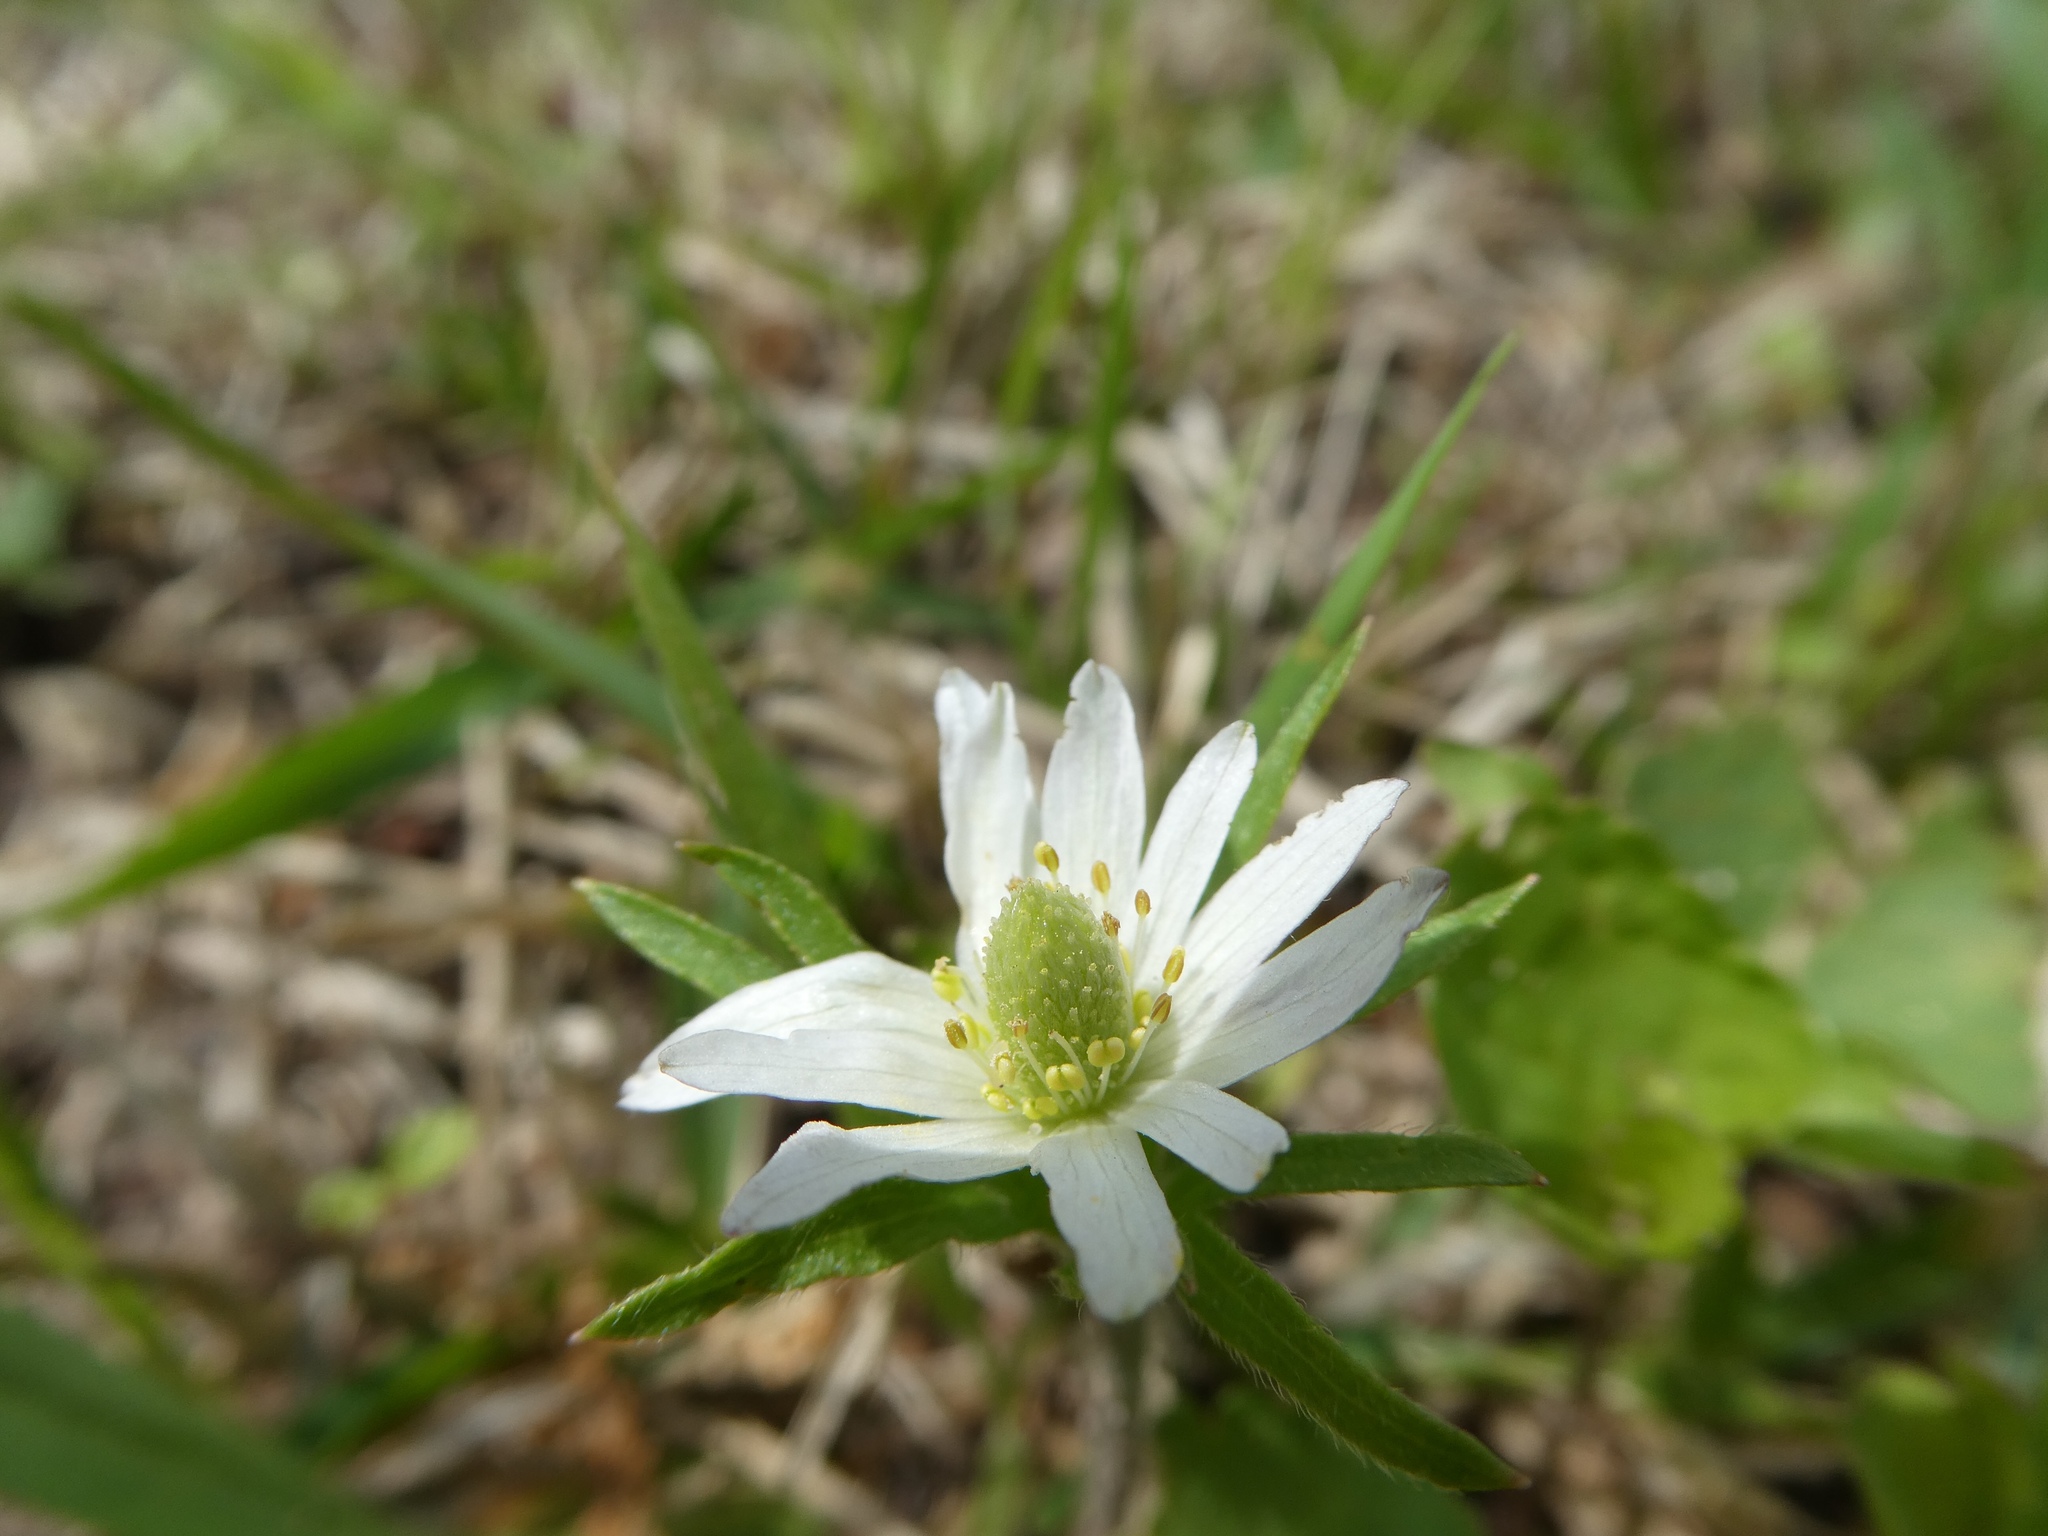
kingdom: Plantae
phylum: Tracheophyta
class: Magnoliopsida
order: Ranunculales
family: Ranunculaceae
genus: Anemone
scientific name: Anemone berlandieri
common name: Ten-petal anemone
